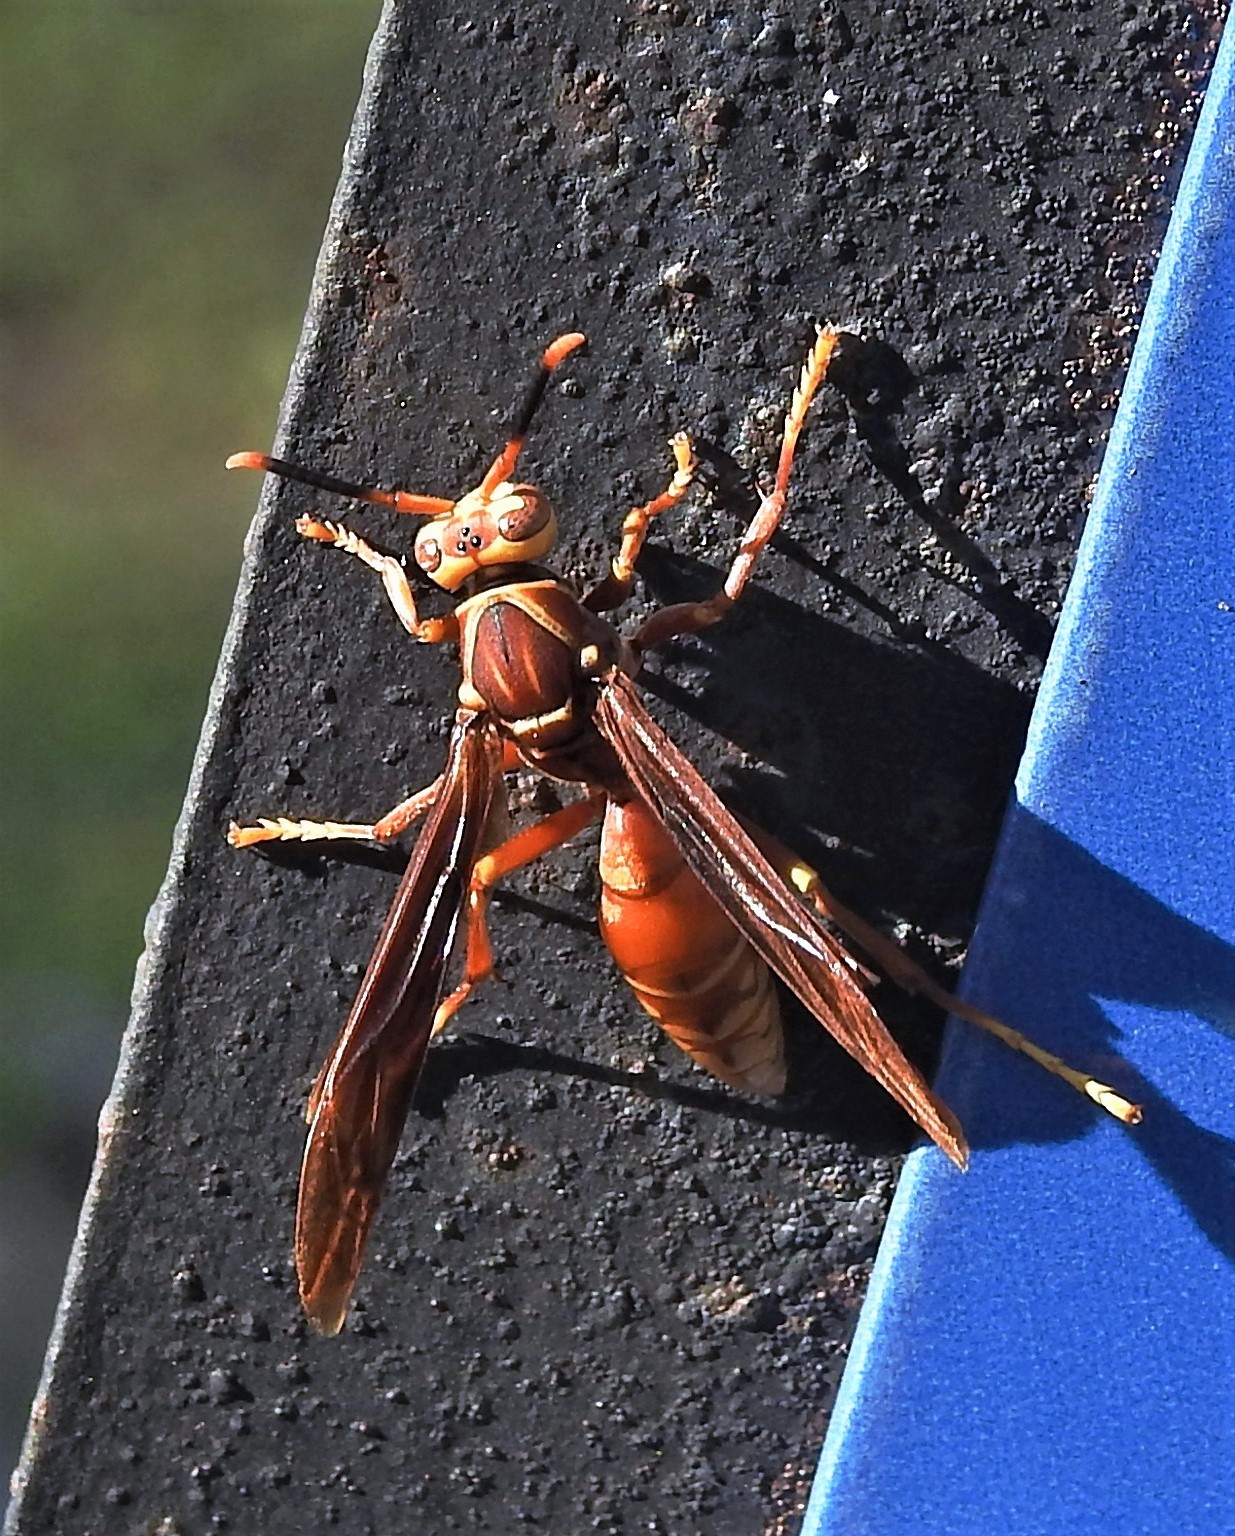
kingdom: Animalia
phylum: Arthropoda
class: Insecta
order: Hymenoptera
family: Eumenidae
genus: Polistes
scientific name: Polistes cavapyta
